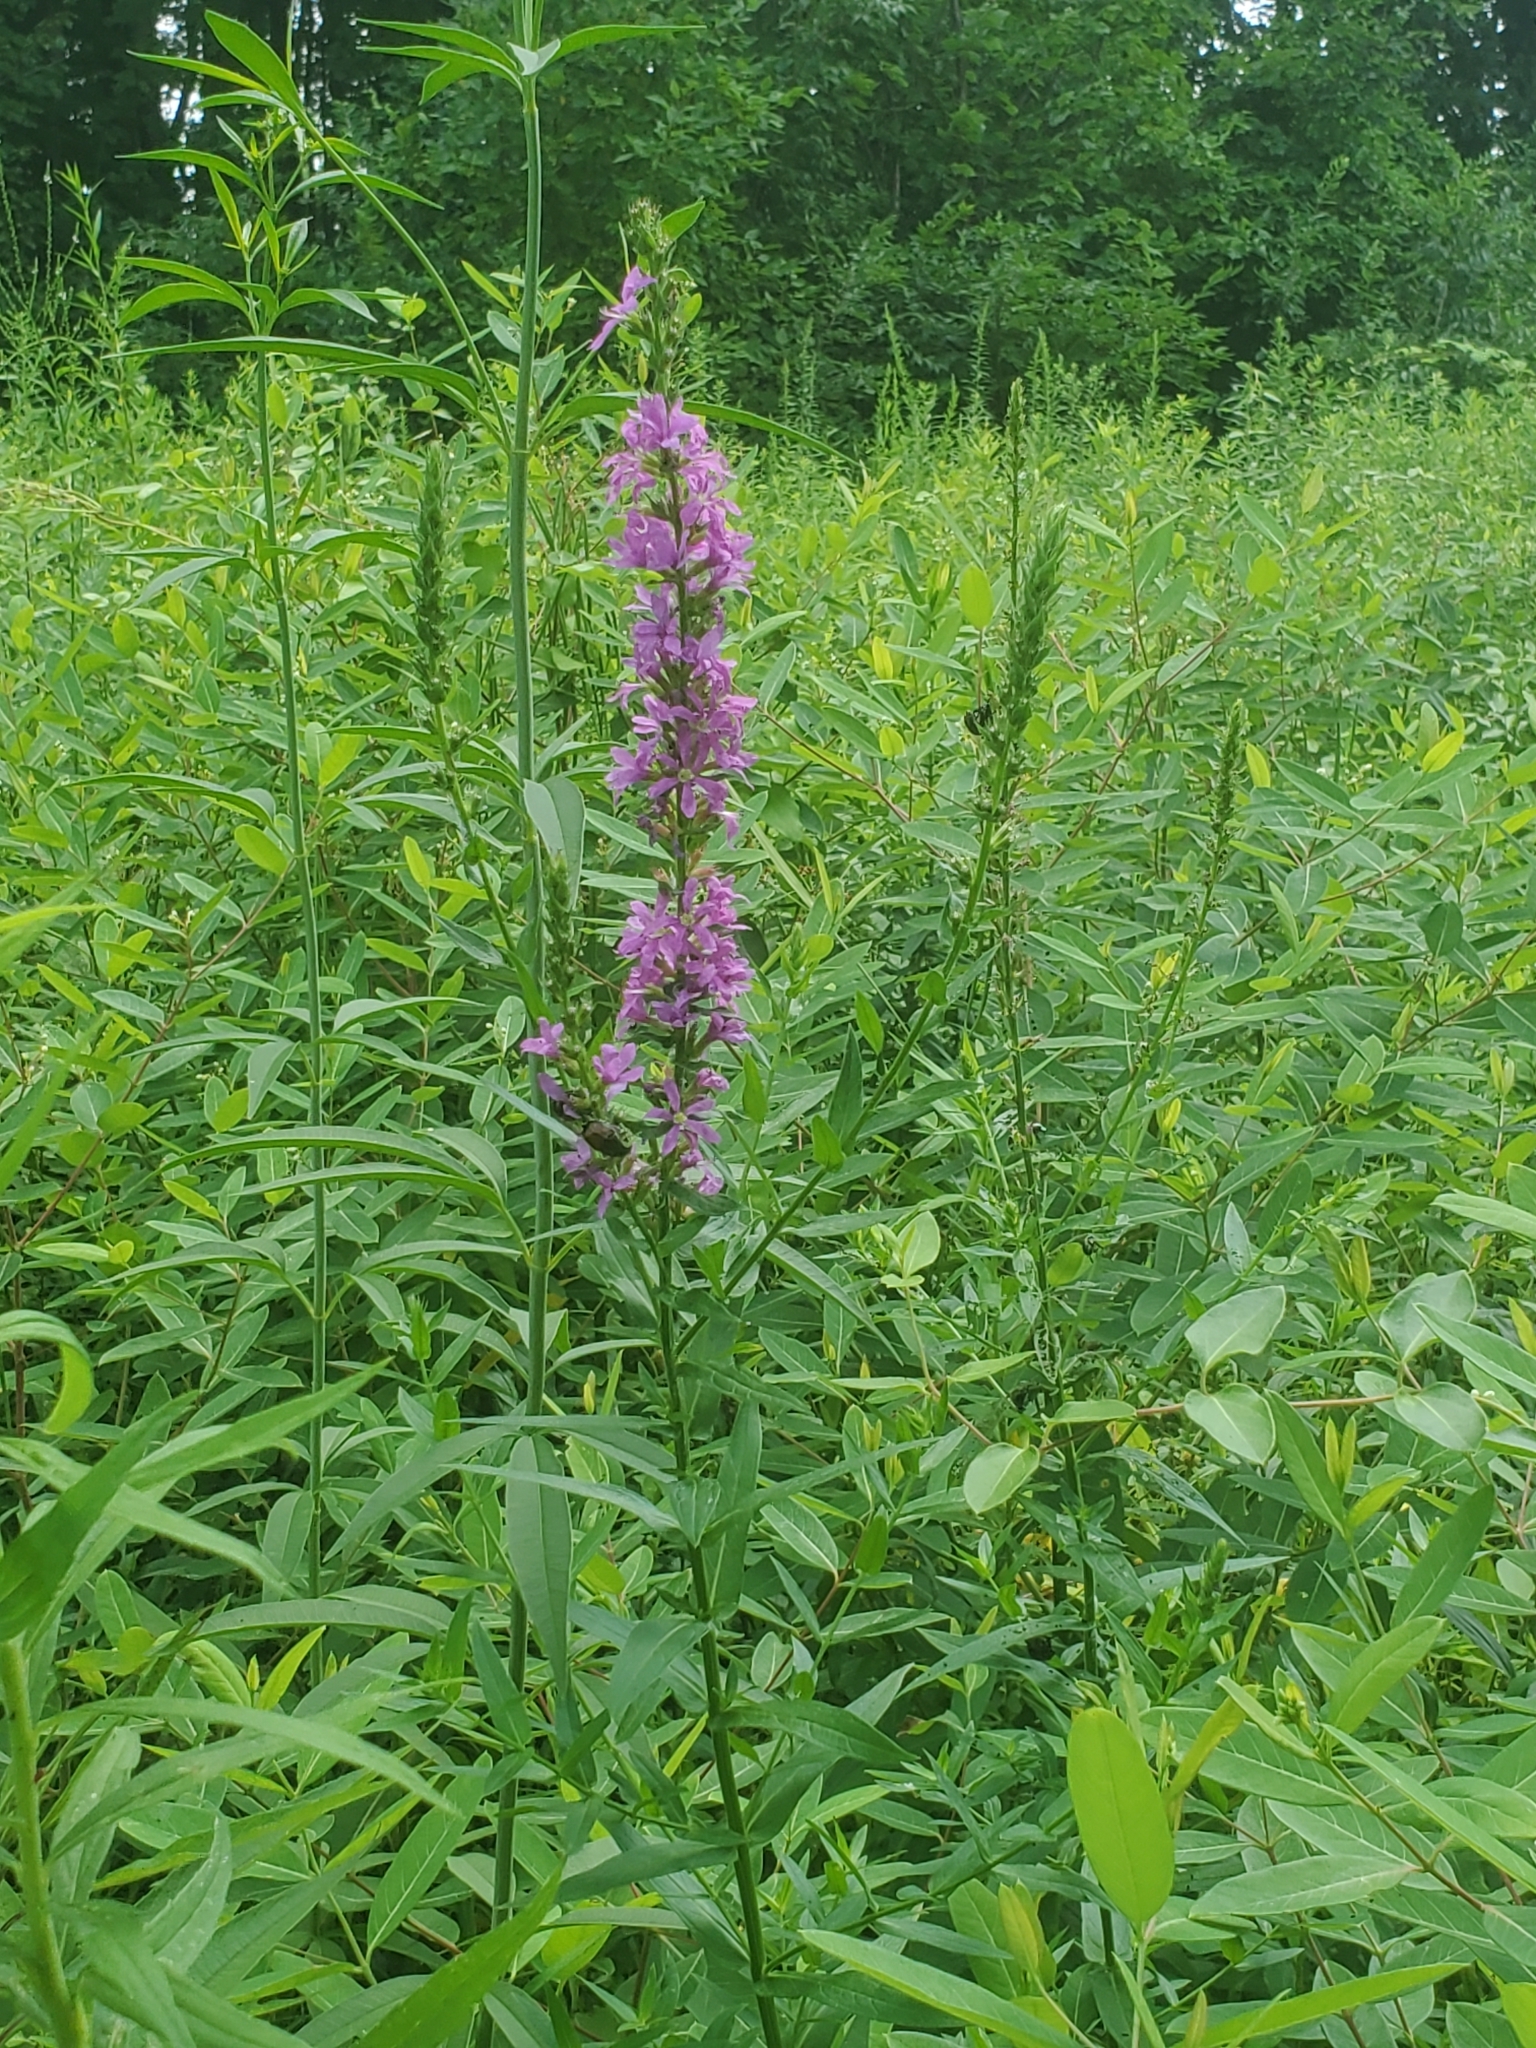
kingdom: Plantae
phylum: Tracheophyta
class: Magnoliopsida
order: Myrtales
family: Lythraceae
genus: Lythrum
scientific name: Lythrum salicaria
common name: Purple loosestrife
